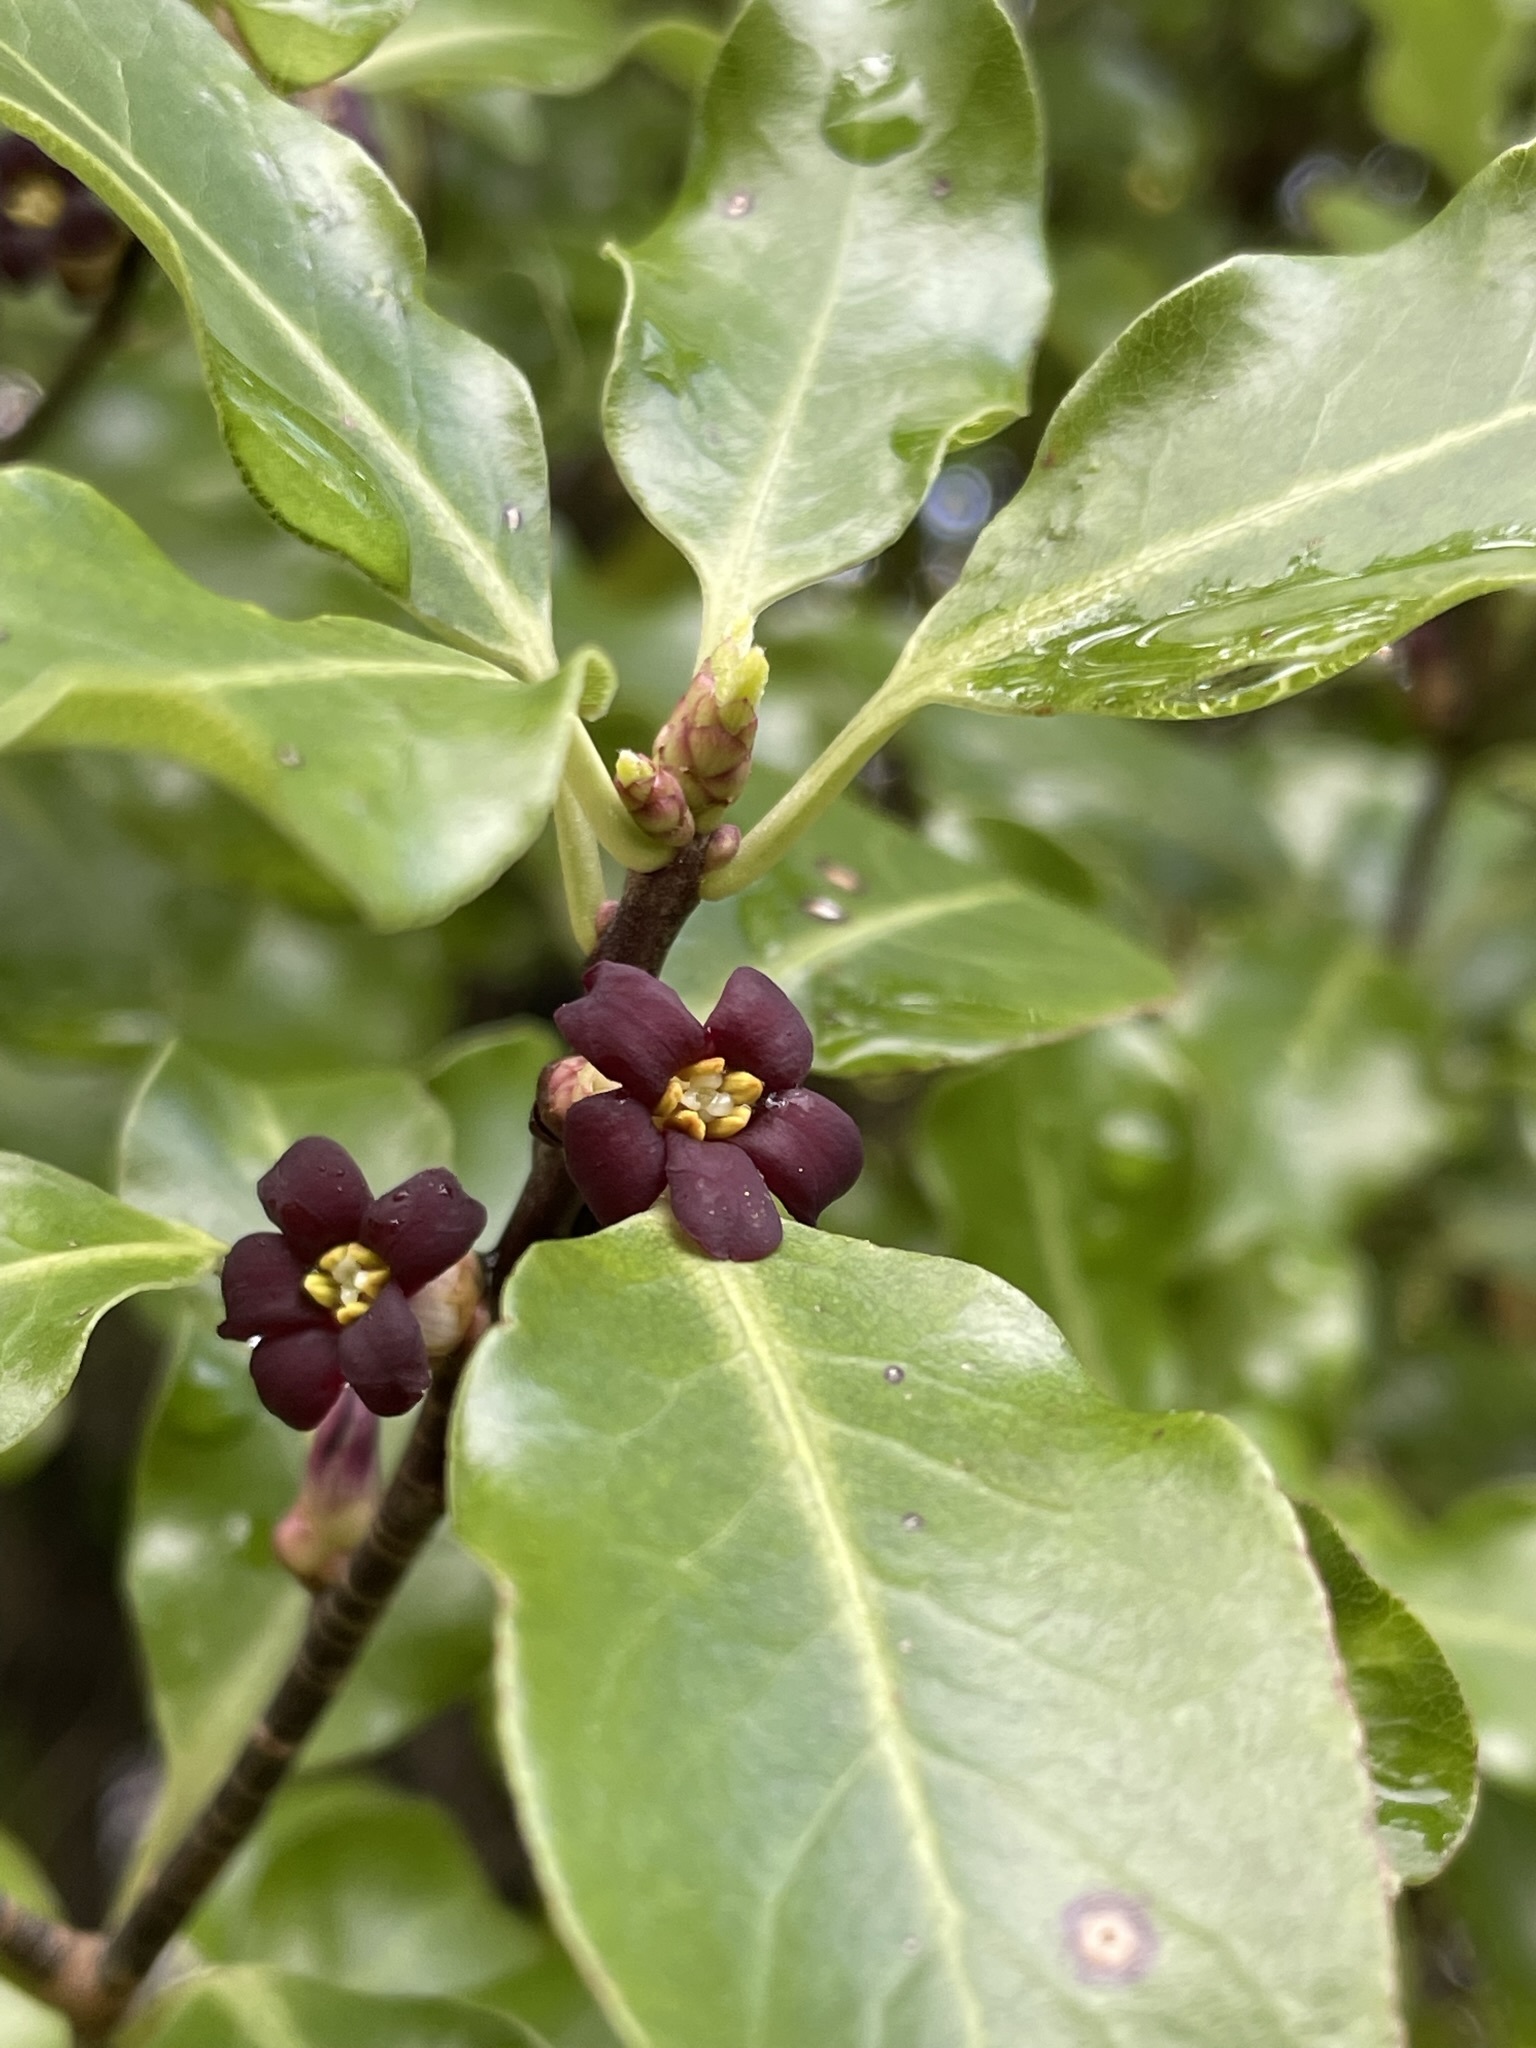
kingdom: Plantae
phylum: Tracheophyta
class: Magnoliopsida
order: Apiales
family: Pittosporaceae
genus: Pittosporum
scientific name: Pittosporum tenuifolium
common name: Kohuhu
